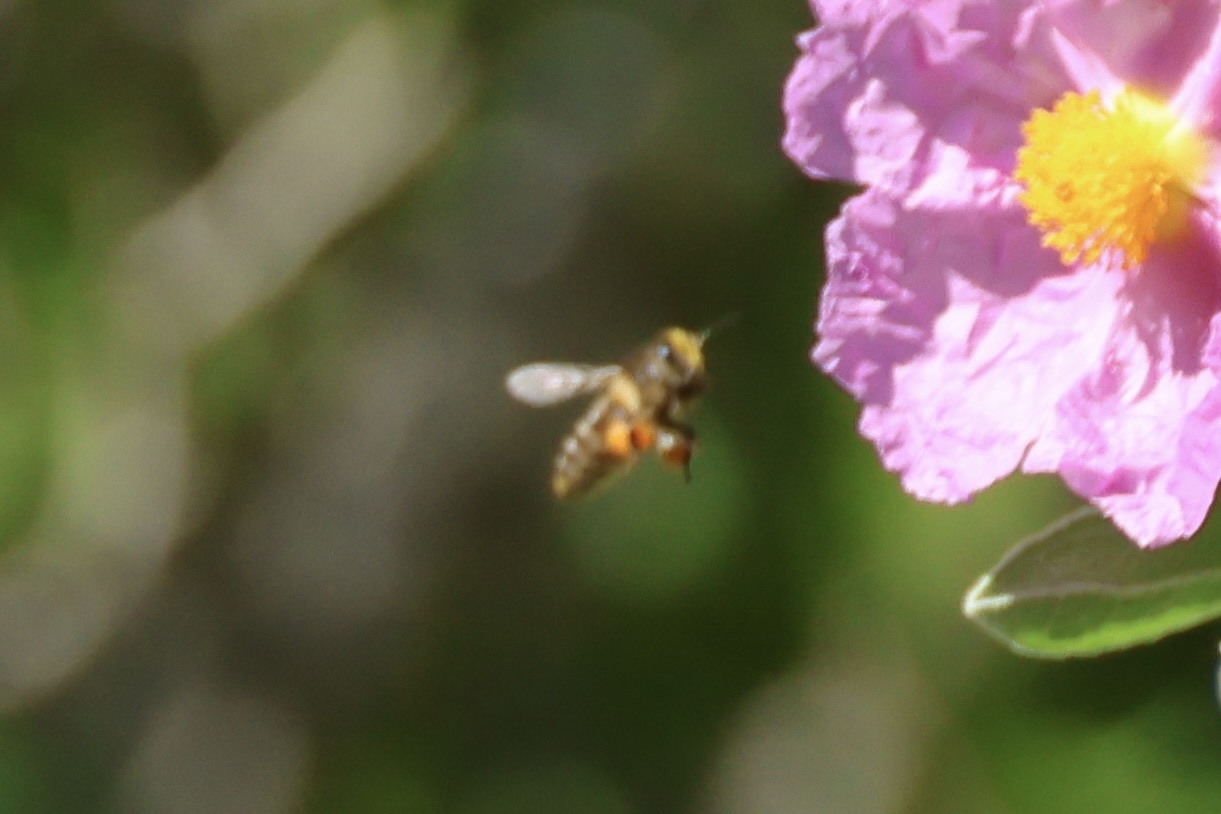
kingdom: Animalia
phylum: Arthropoda
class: Insecta
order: Hymenoptera
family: Apidae
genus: Apis
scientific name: Apis mellifera
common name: Honey bee
